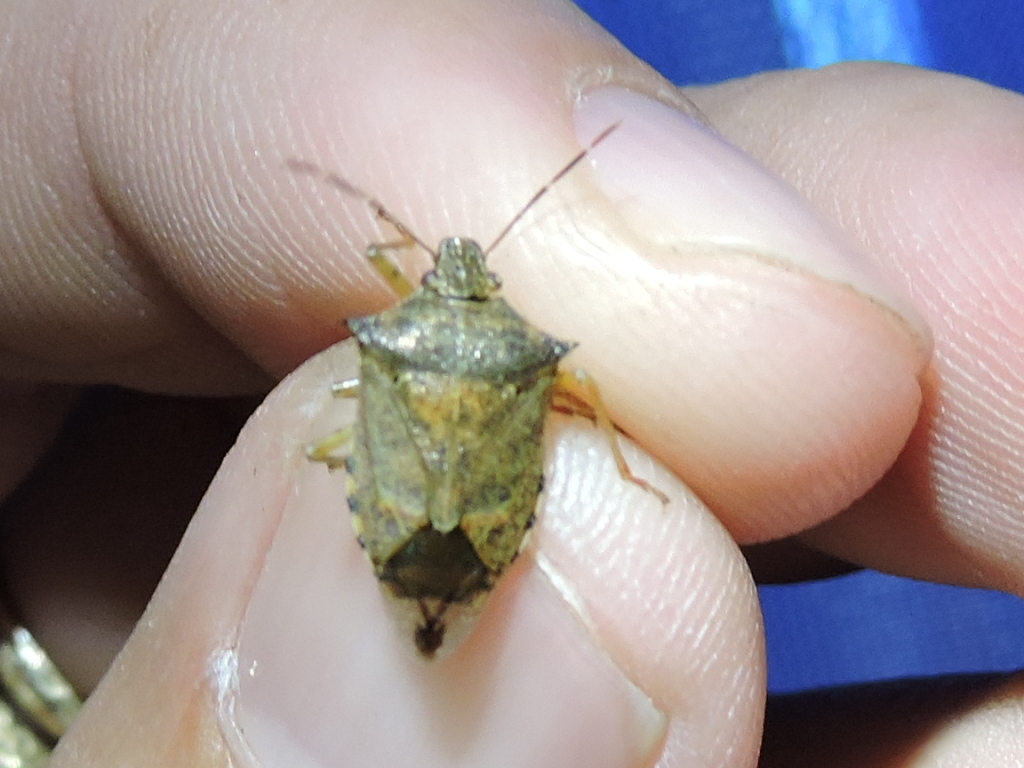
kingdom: Animalia
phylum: Arthropoda
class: Insecta
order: Hemiptera
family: Pentatomidae
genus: Podisus
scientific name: Podisus maculiventris
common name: Spined soldier bug
